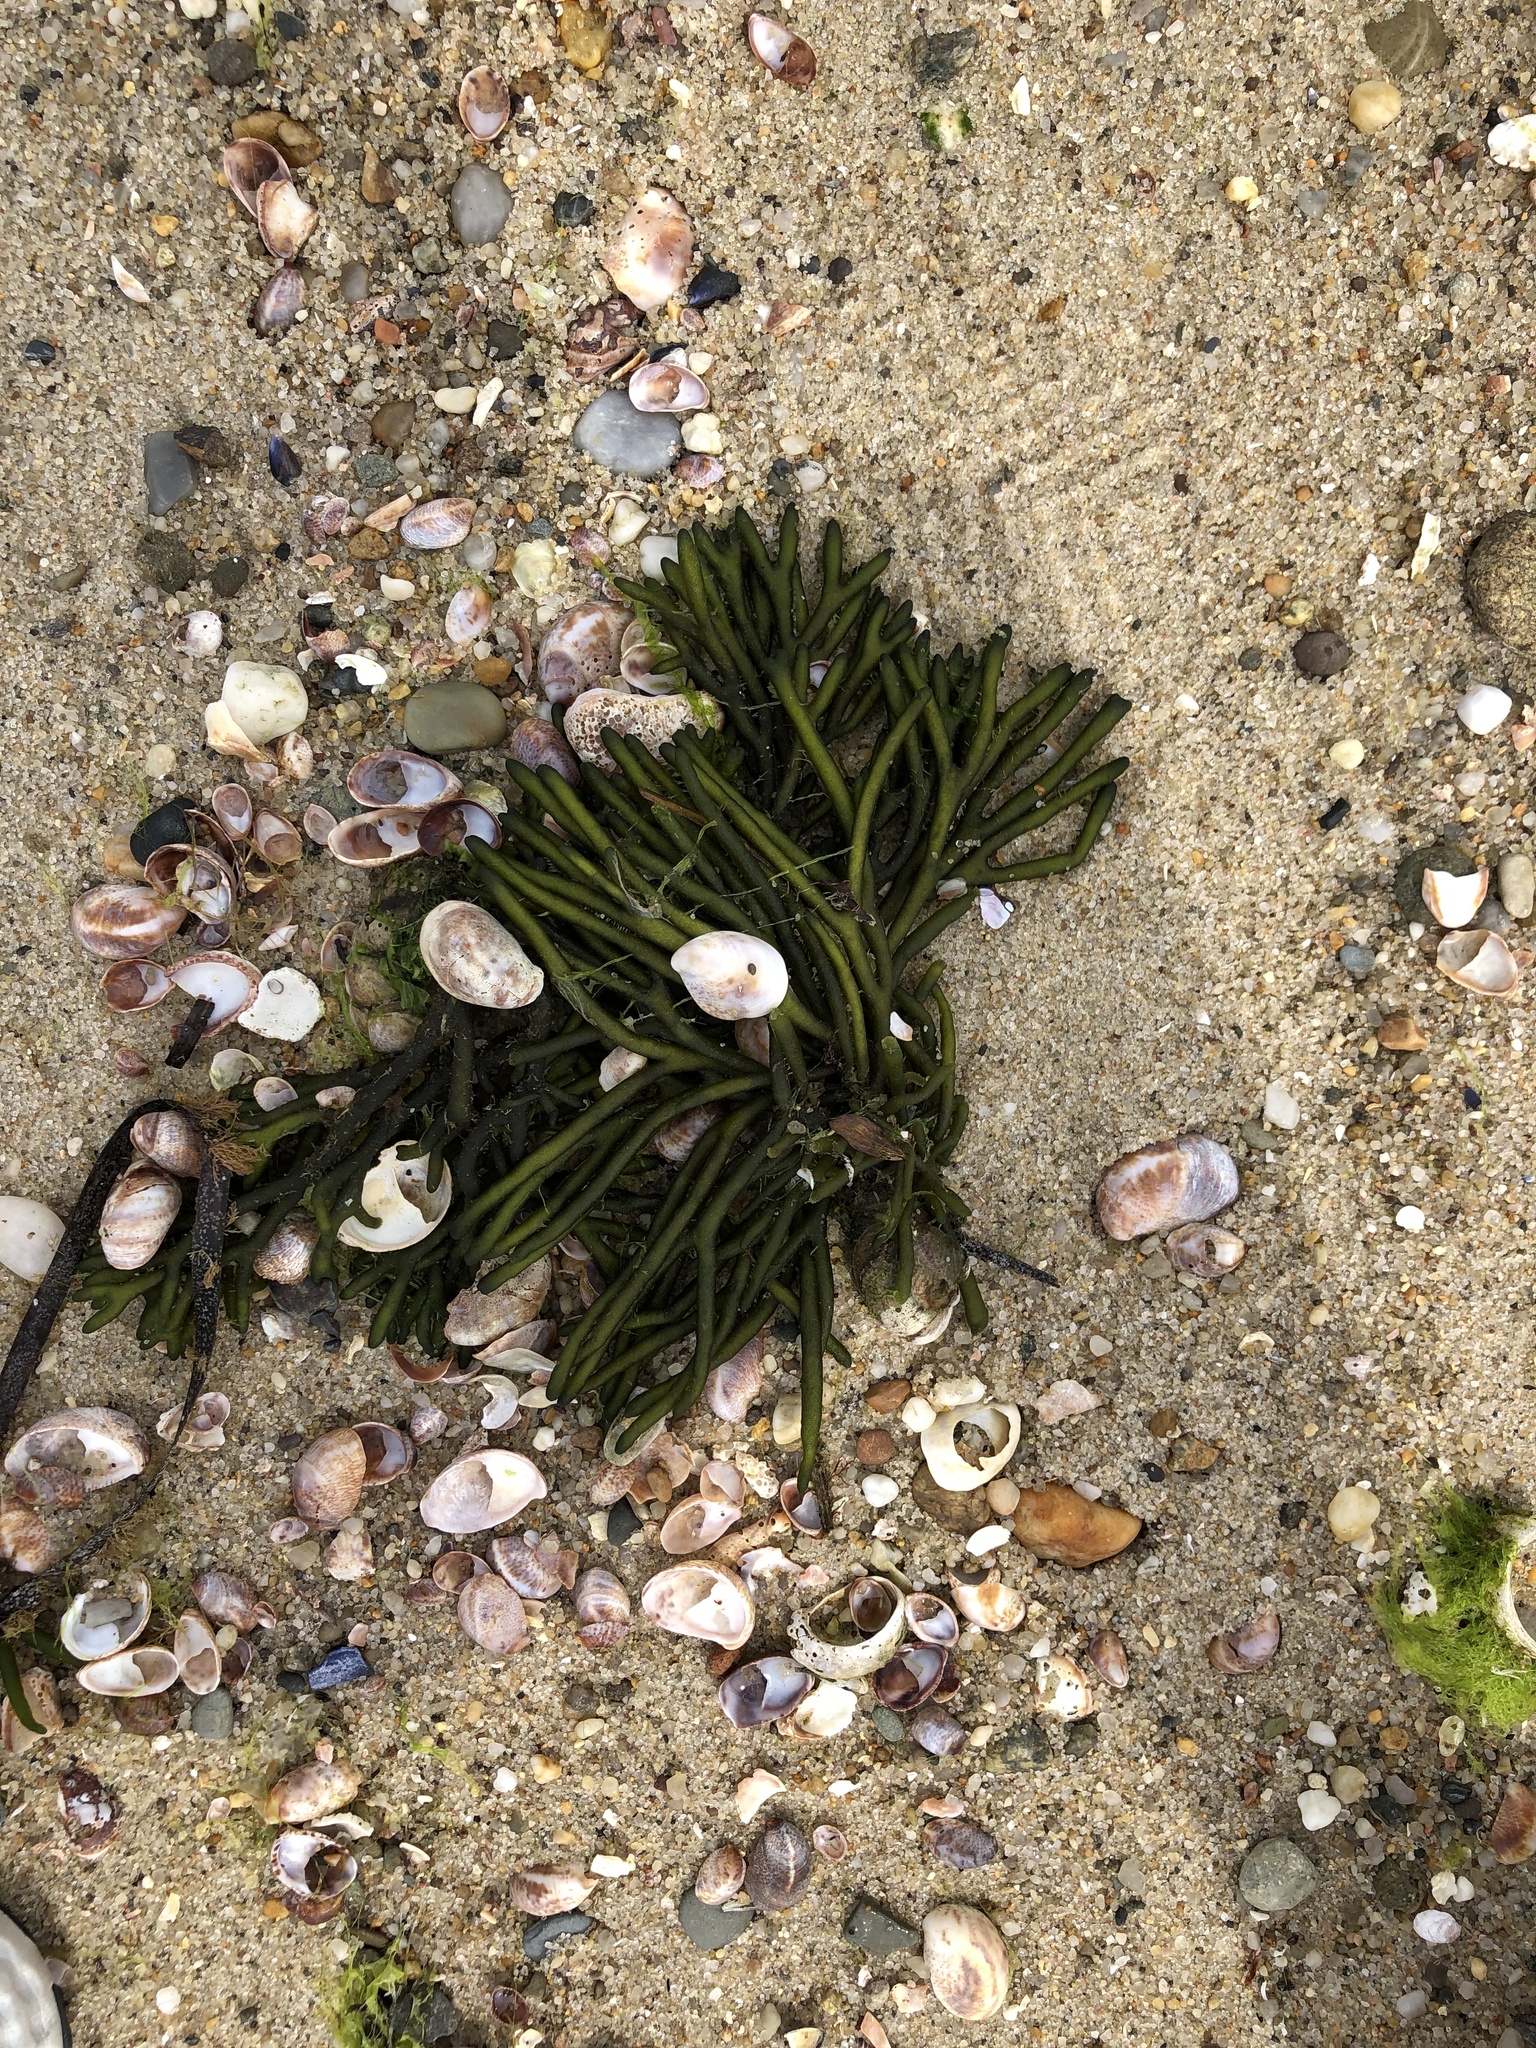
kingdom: Plantae
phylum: Chlorophyta
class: Ulvophyceae
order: Bryopsidales
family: Codiaceae
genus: Codium
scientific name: Codium fragile
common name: Dead man's fingers
